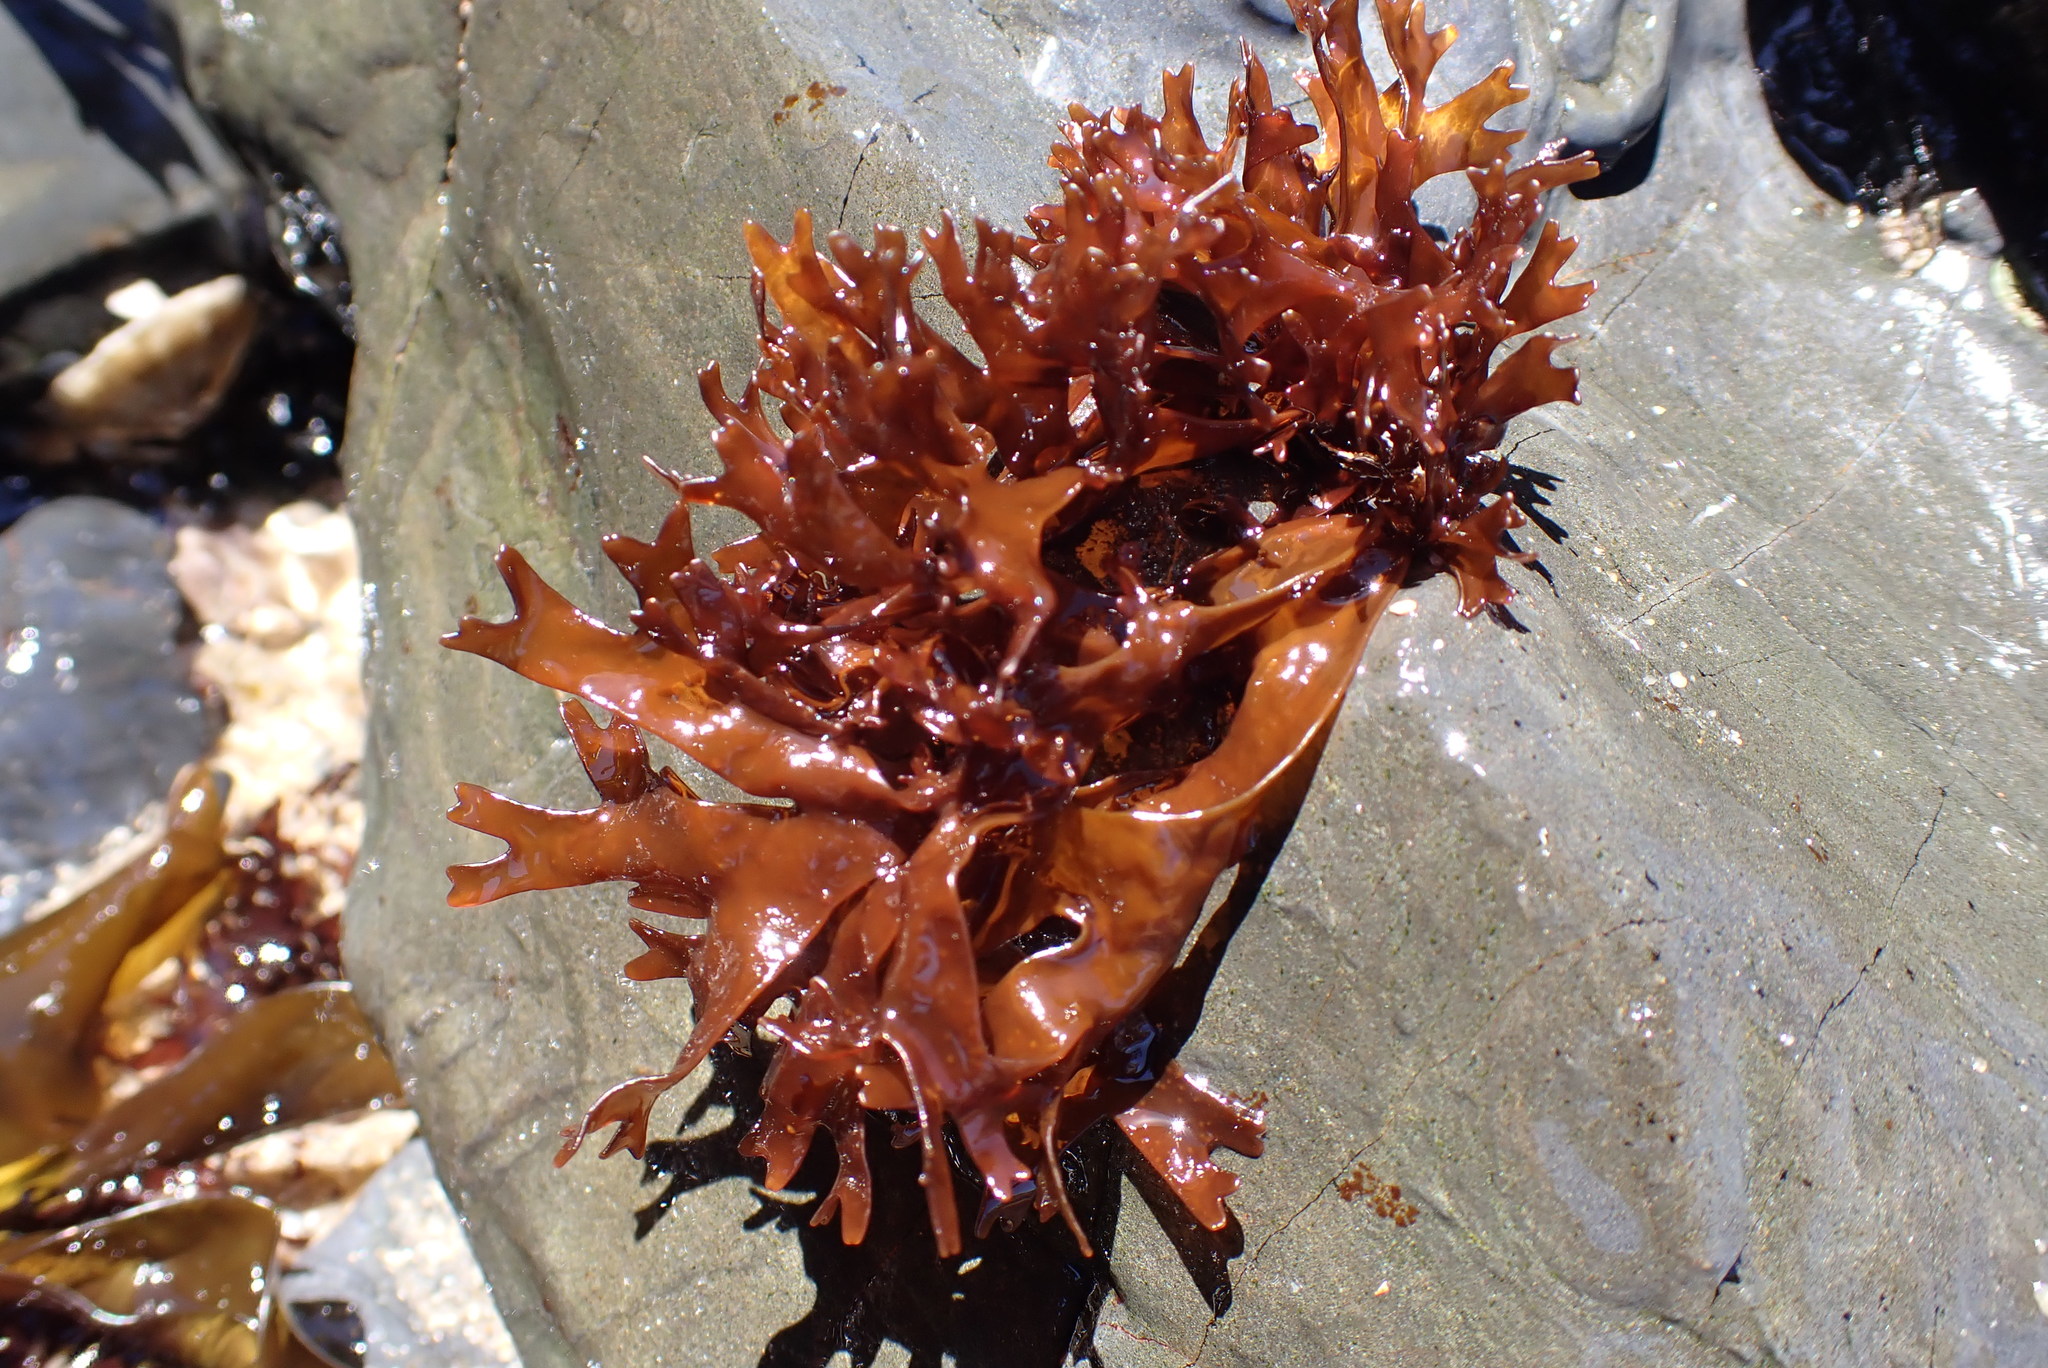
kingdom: Plantae
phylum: Rhodophyta
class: Florideophyceae
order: Nemaliales
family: Scinaiaceae
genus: Nothogenia
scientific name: Nothogenia
